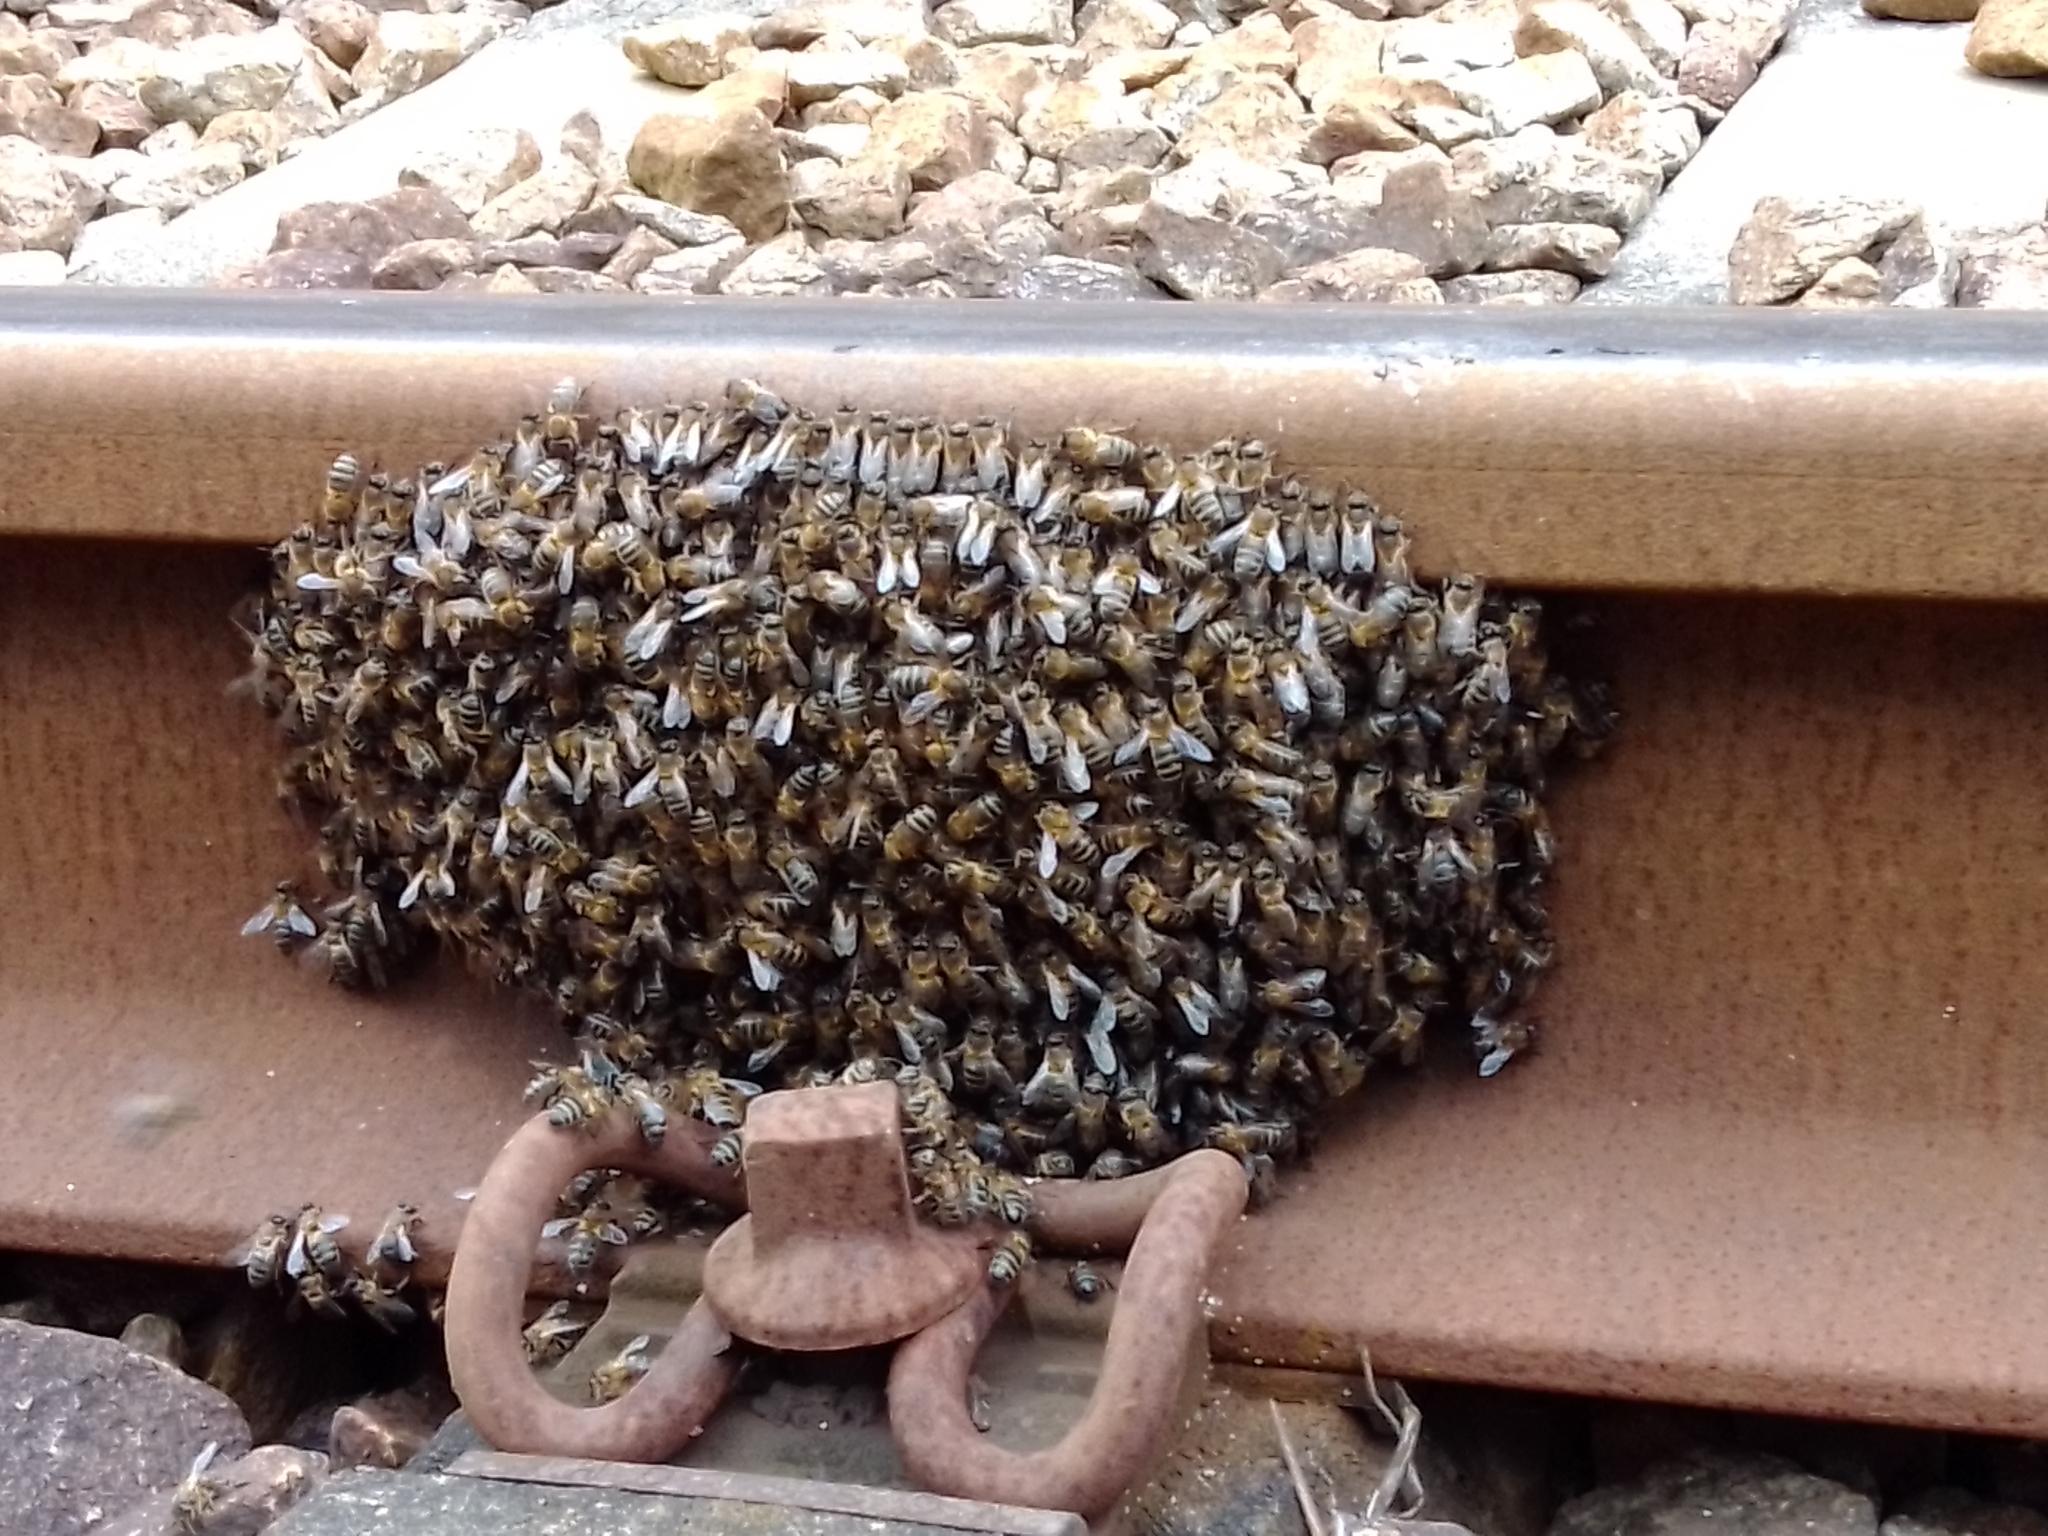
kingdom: Animalia
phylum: Arthropoda
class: Insecta
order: Hymenoptera
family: Apidae
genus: Apis
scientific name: Apis mellifera
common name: Honey bee
